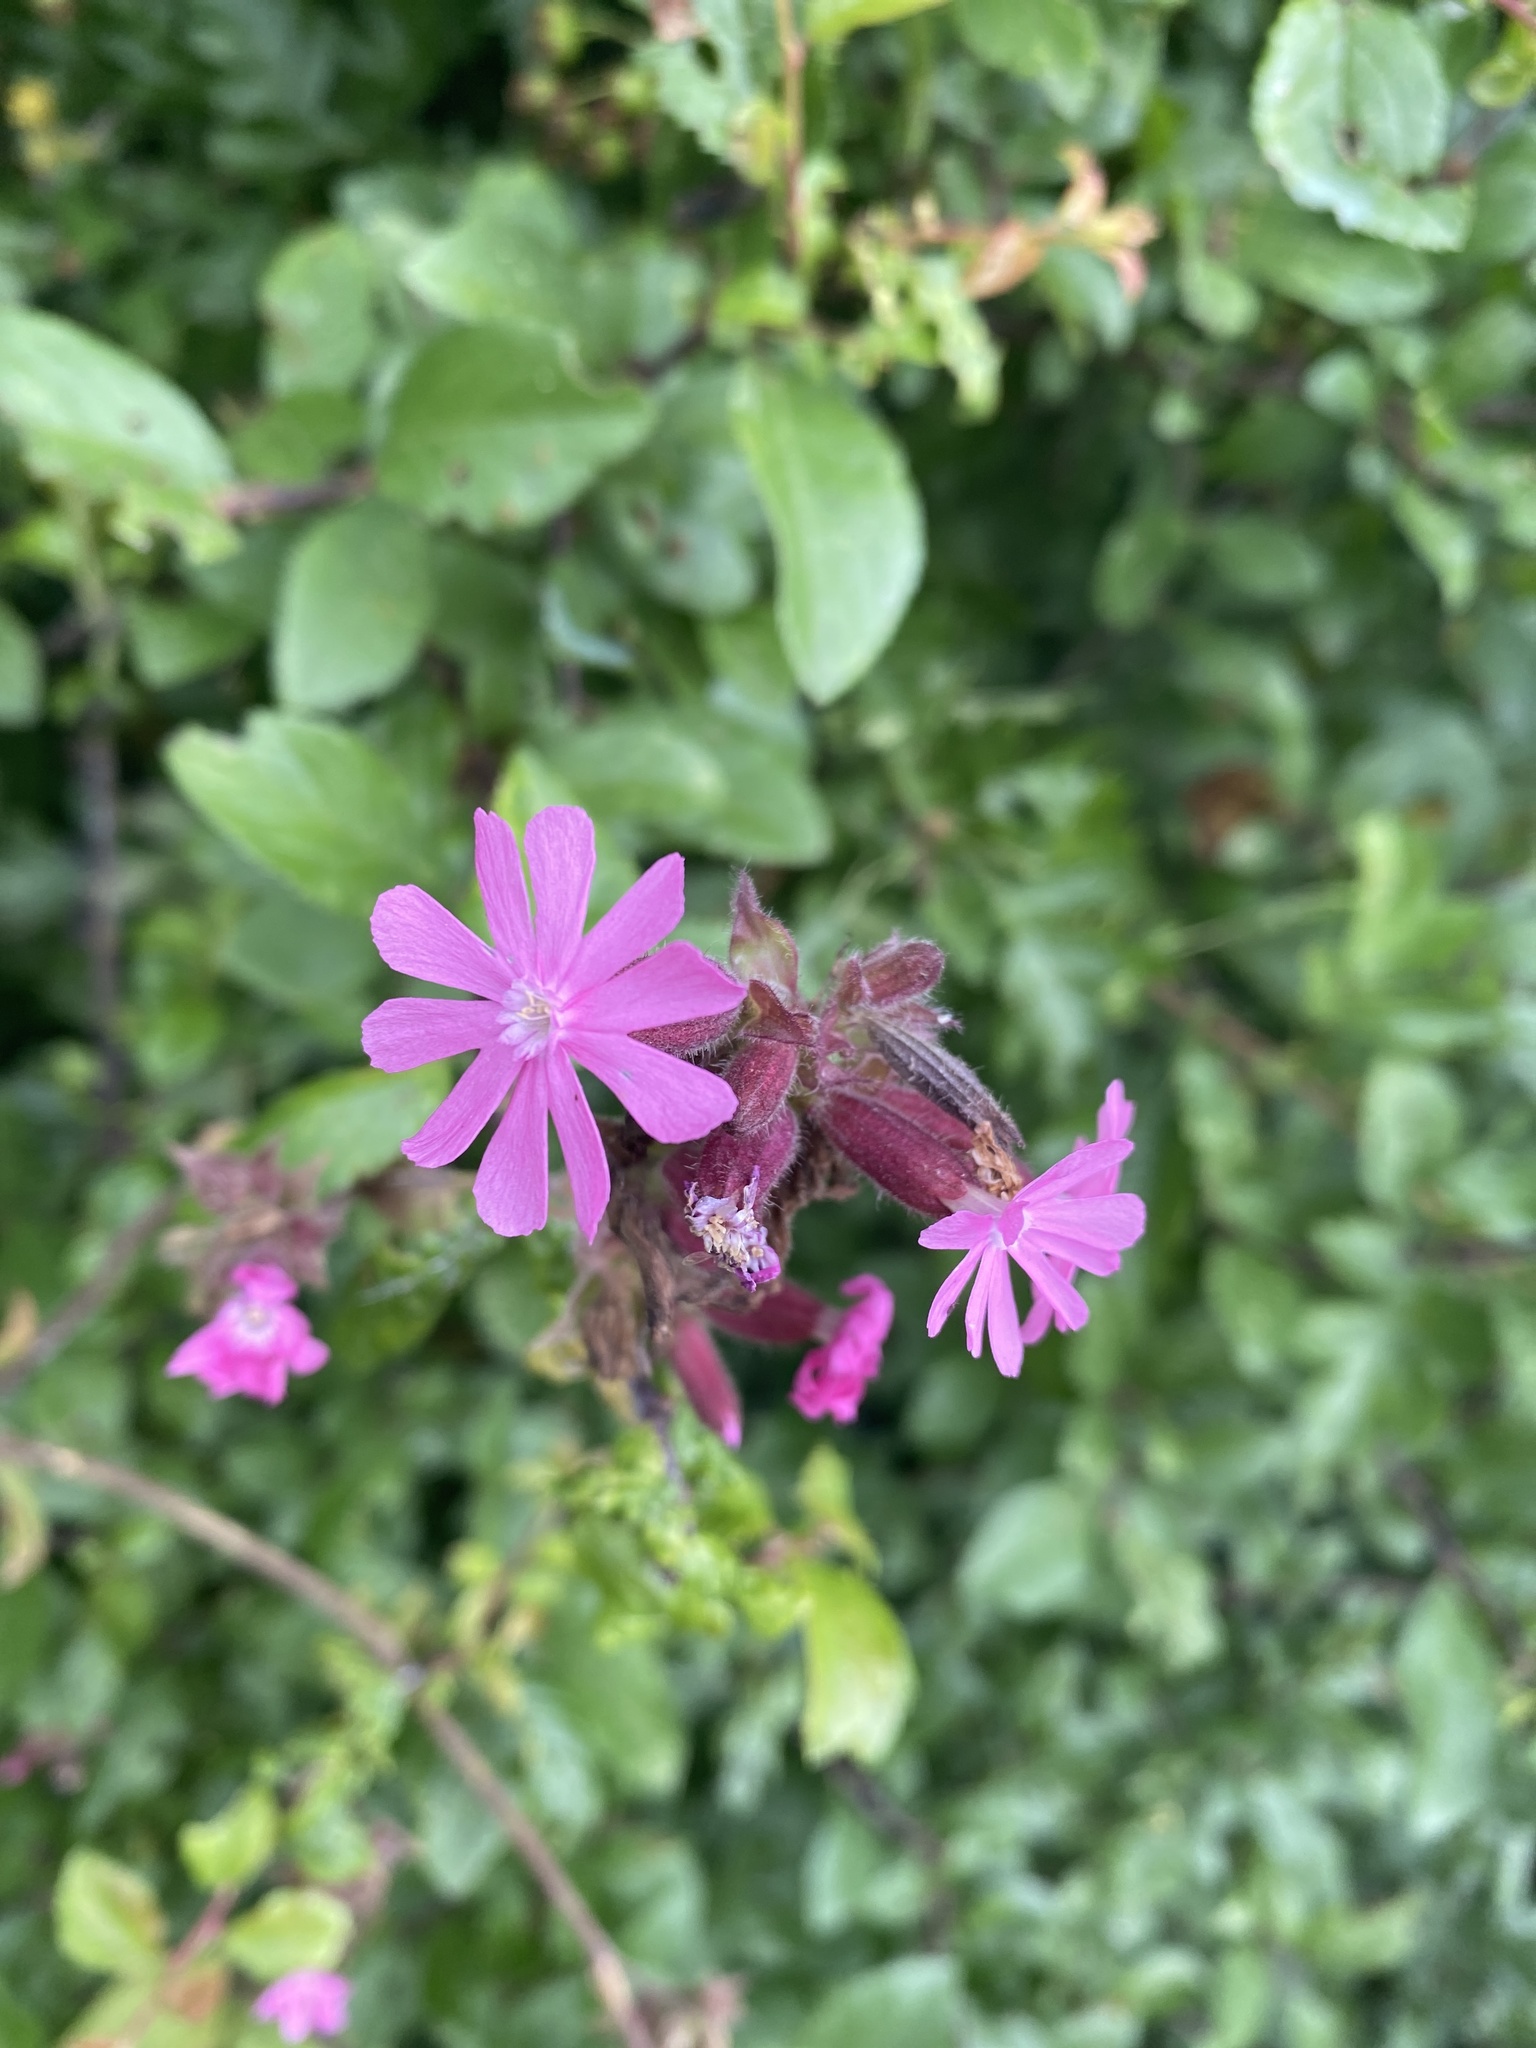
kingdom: Plantae
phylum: Tracheophyta
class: Magnoliopsida
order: Caryophyllales
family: Caryophyllaceae
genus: Silene
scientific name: Silene dioica
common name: Red campion
